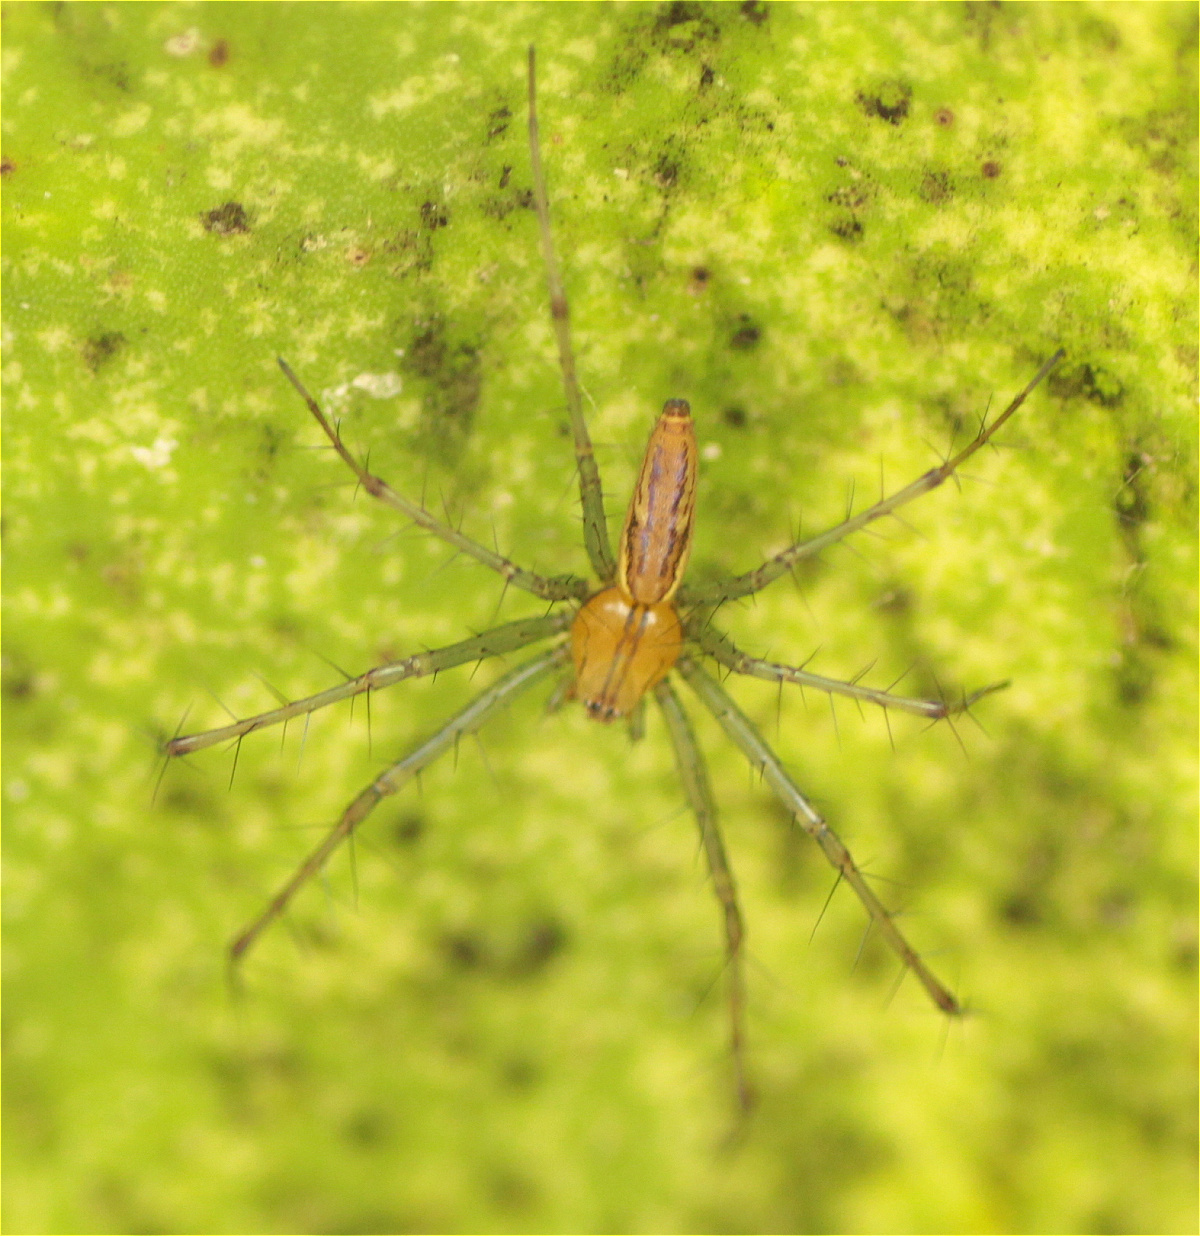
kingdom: Animalia
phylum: Arthropoda
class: Arachnida
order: Araneae
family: Oxyopidae
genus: Peucetia
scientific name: Peucetia rubrolineata
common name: Lynx spiders
